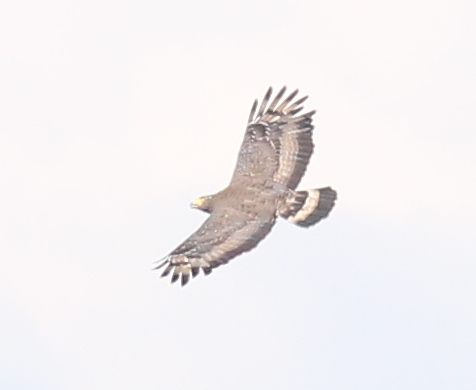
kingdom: Animalia
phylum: Chordata
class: Aves
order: Accipitriformes
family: Accipitridae
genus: Spilornis
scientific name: Spilornis cheela
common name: Crested serpent eagle
